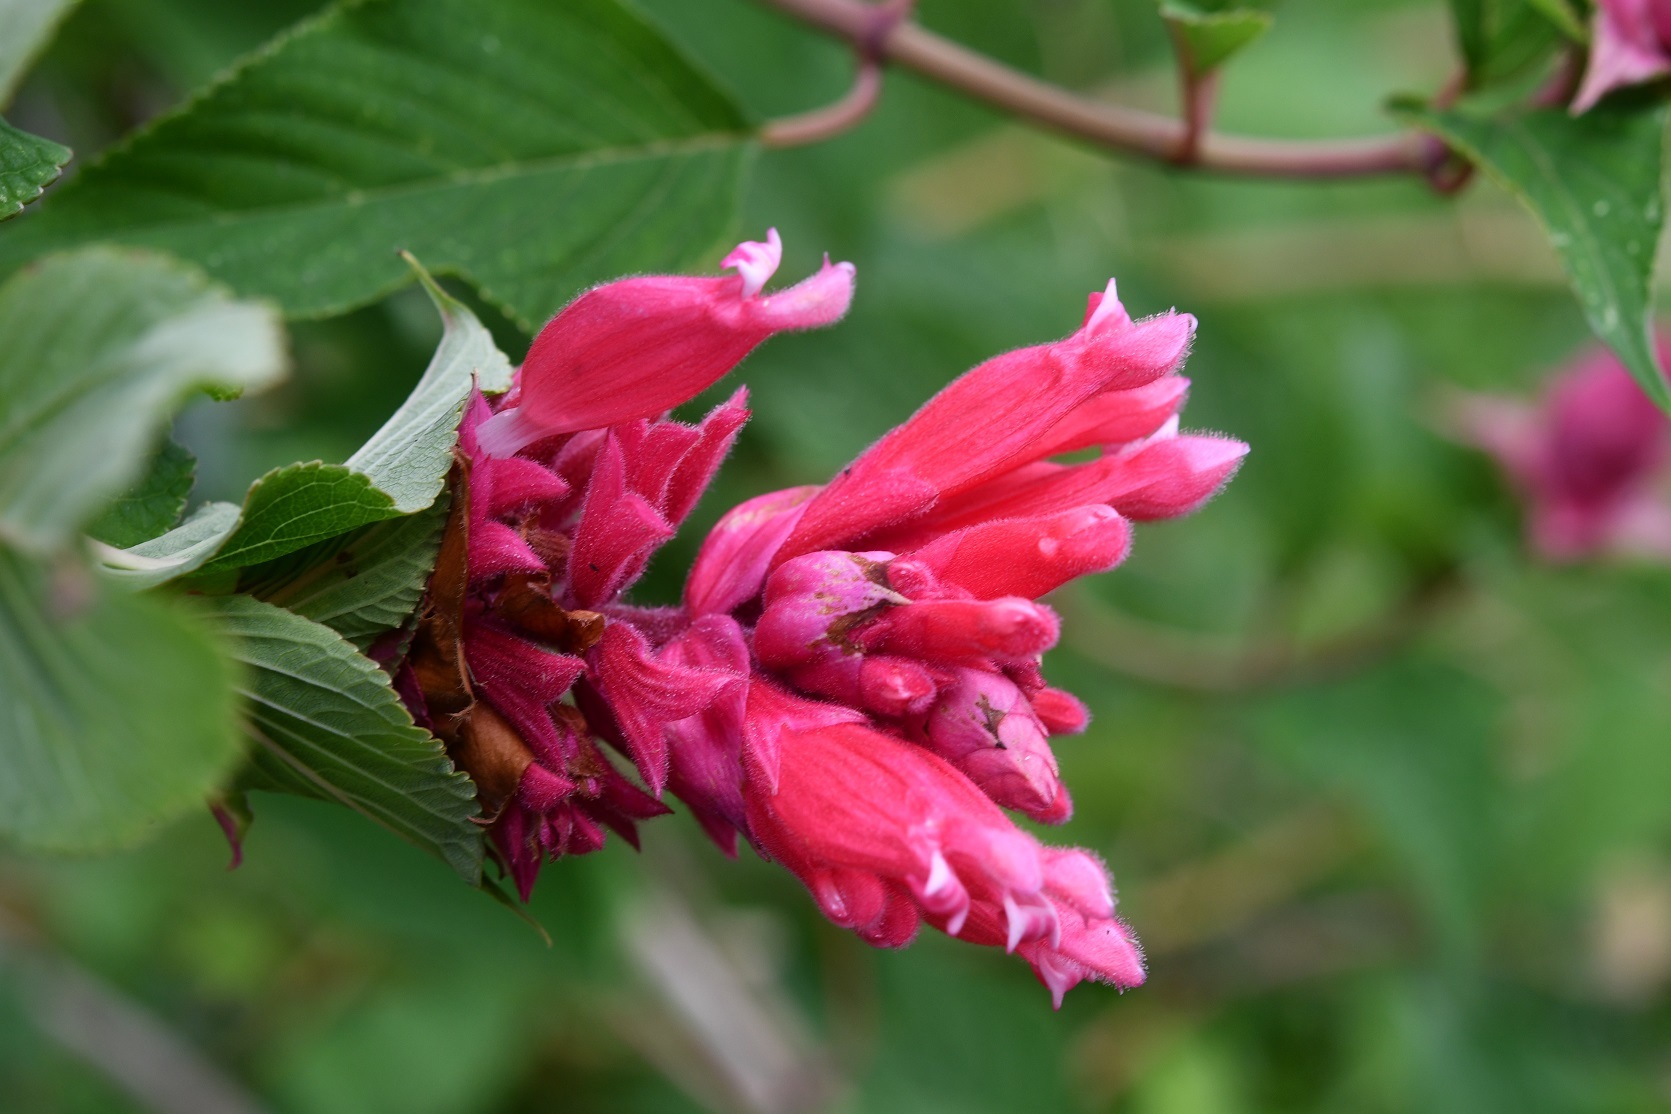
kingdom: Plantae
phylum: Tracheophyta
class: Magnoliopsida
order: Lamiales
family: Lamiaceae
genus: Salvia
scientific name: Salvia wagneriana
